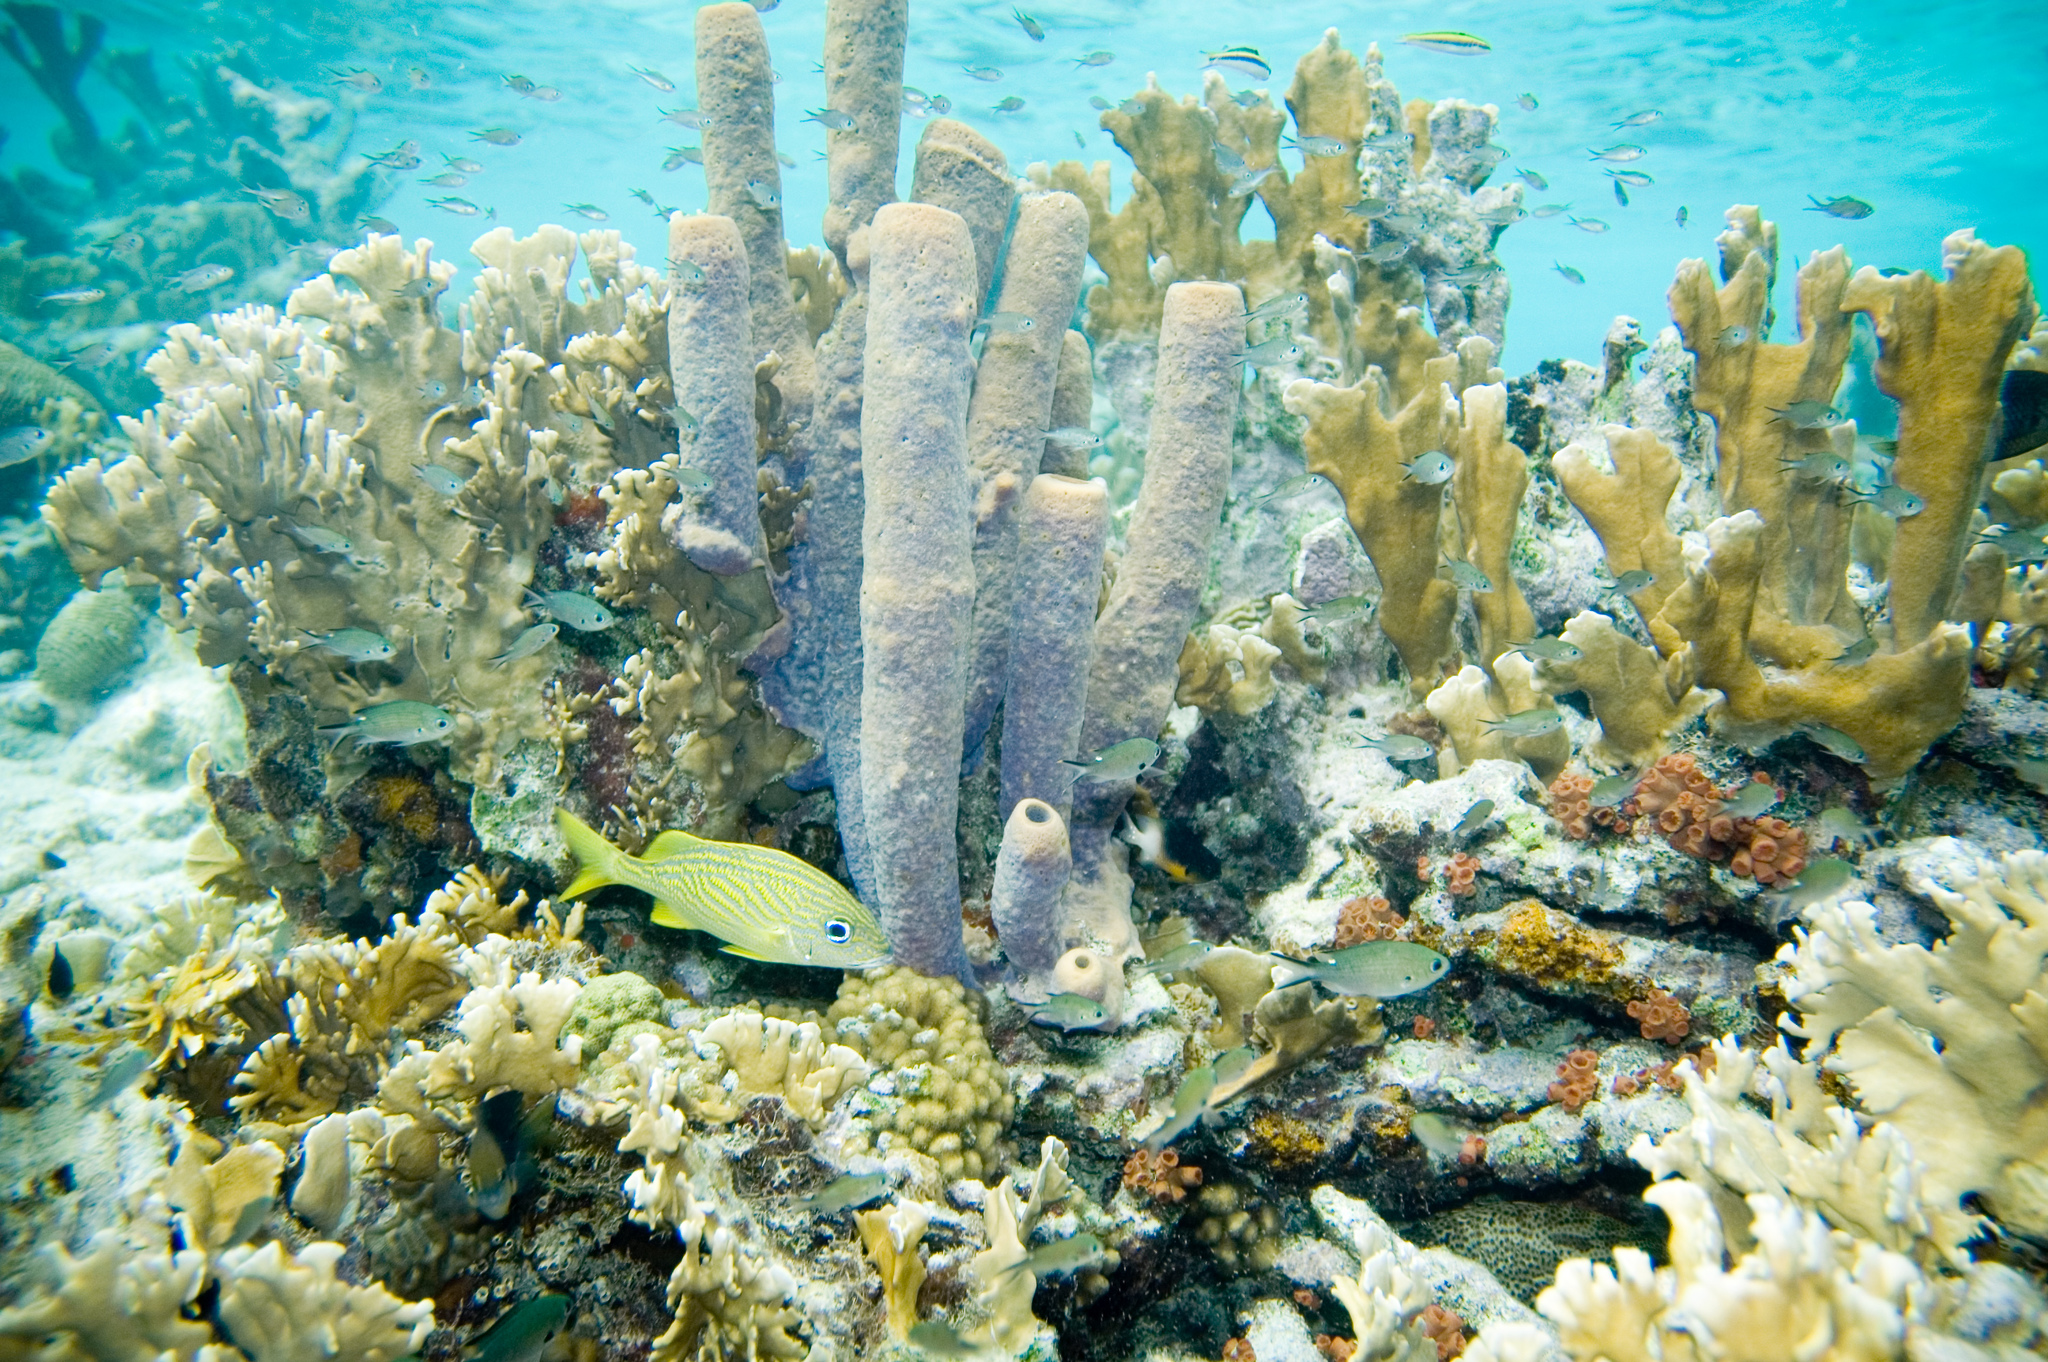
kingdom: Animalia
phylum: Chordata
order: Perciformes
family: Haemulidae
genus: Haemulon
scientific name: Haemulon flavolineatum
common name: French grunt
